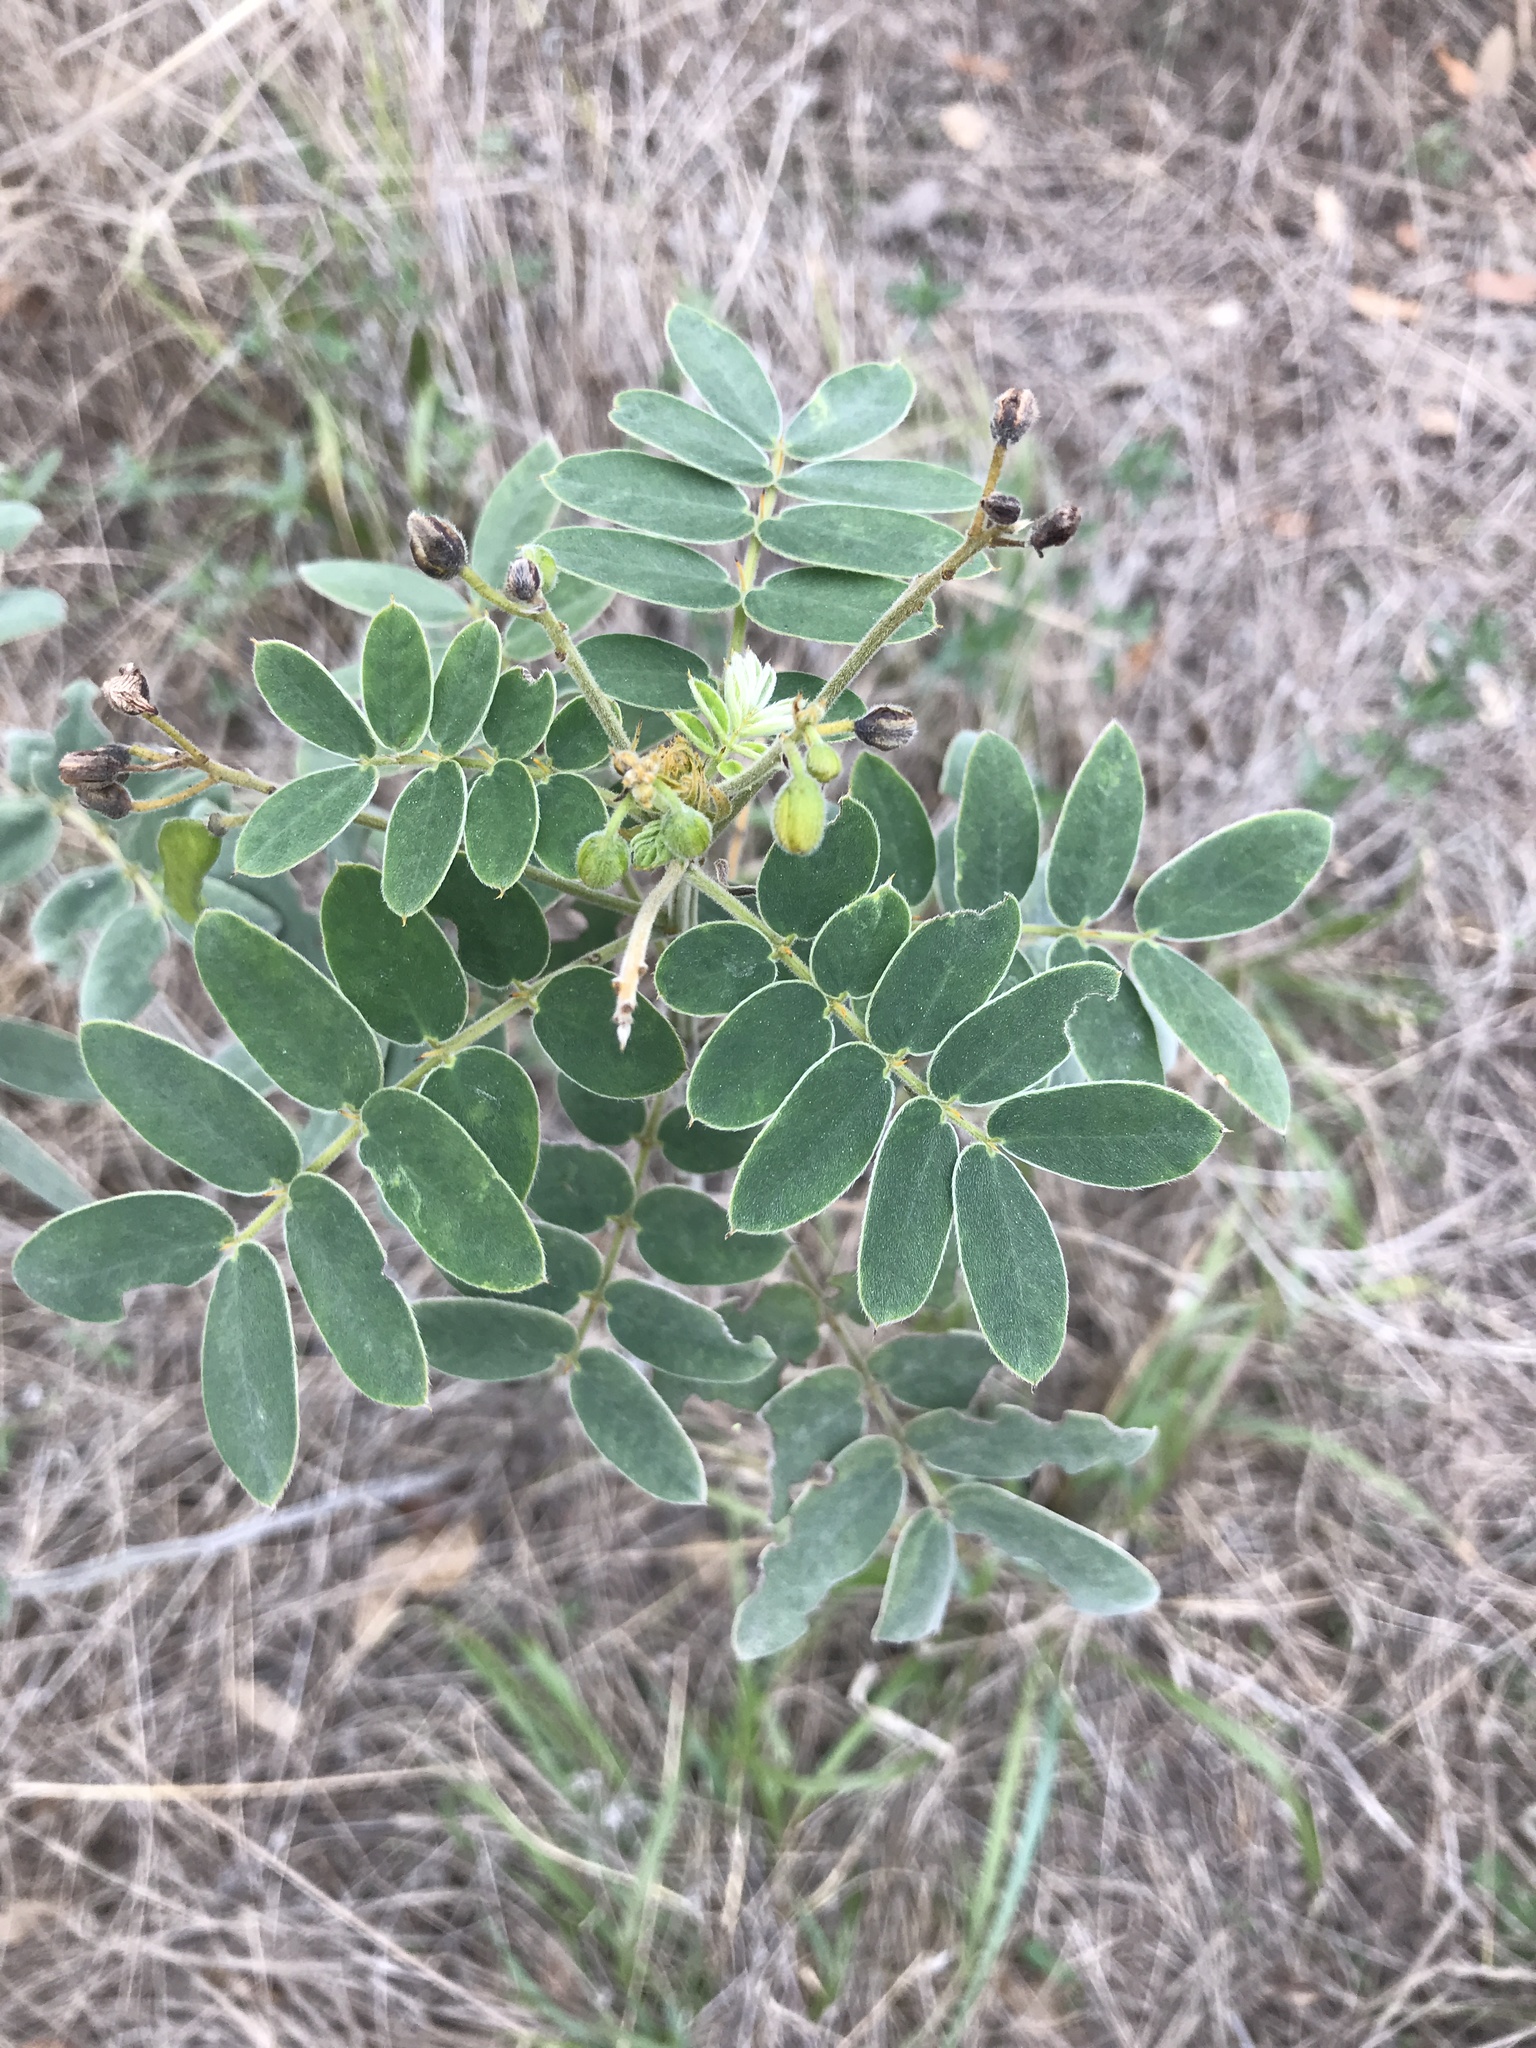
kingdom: Plantae
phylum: Tracheophyta
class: Magnoliopsida
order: Fabales
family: Fabaceae
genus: Senna
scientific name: Senna lindheimeriana
